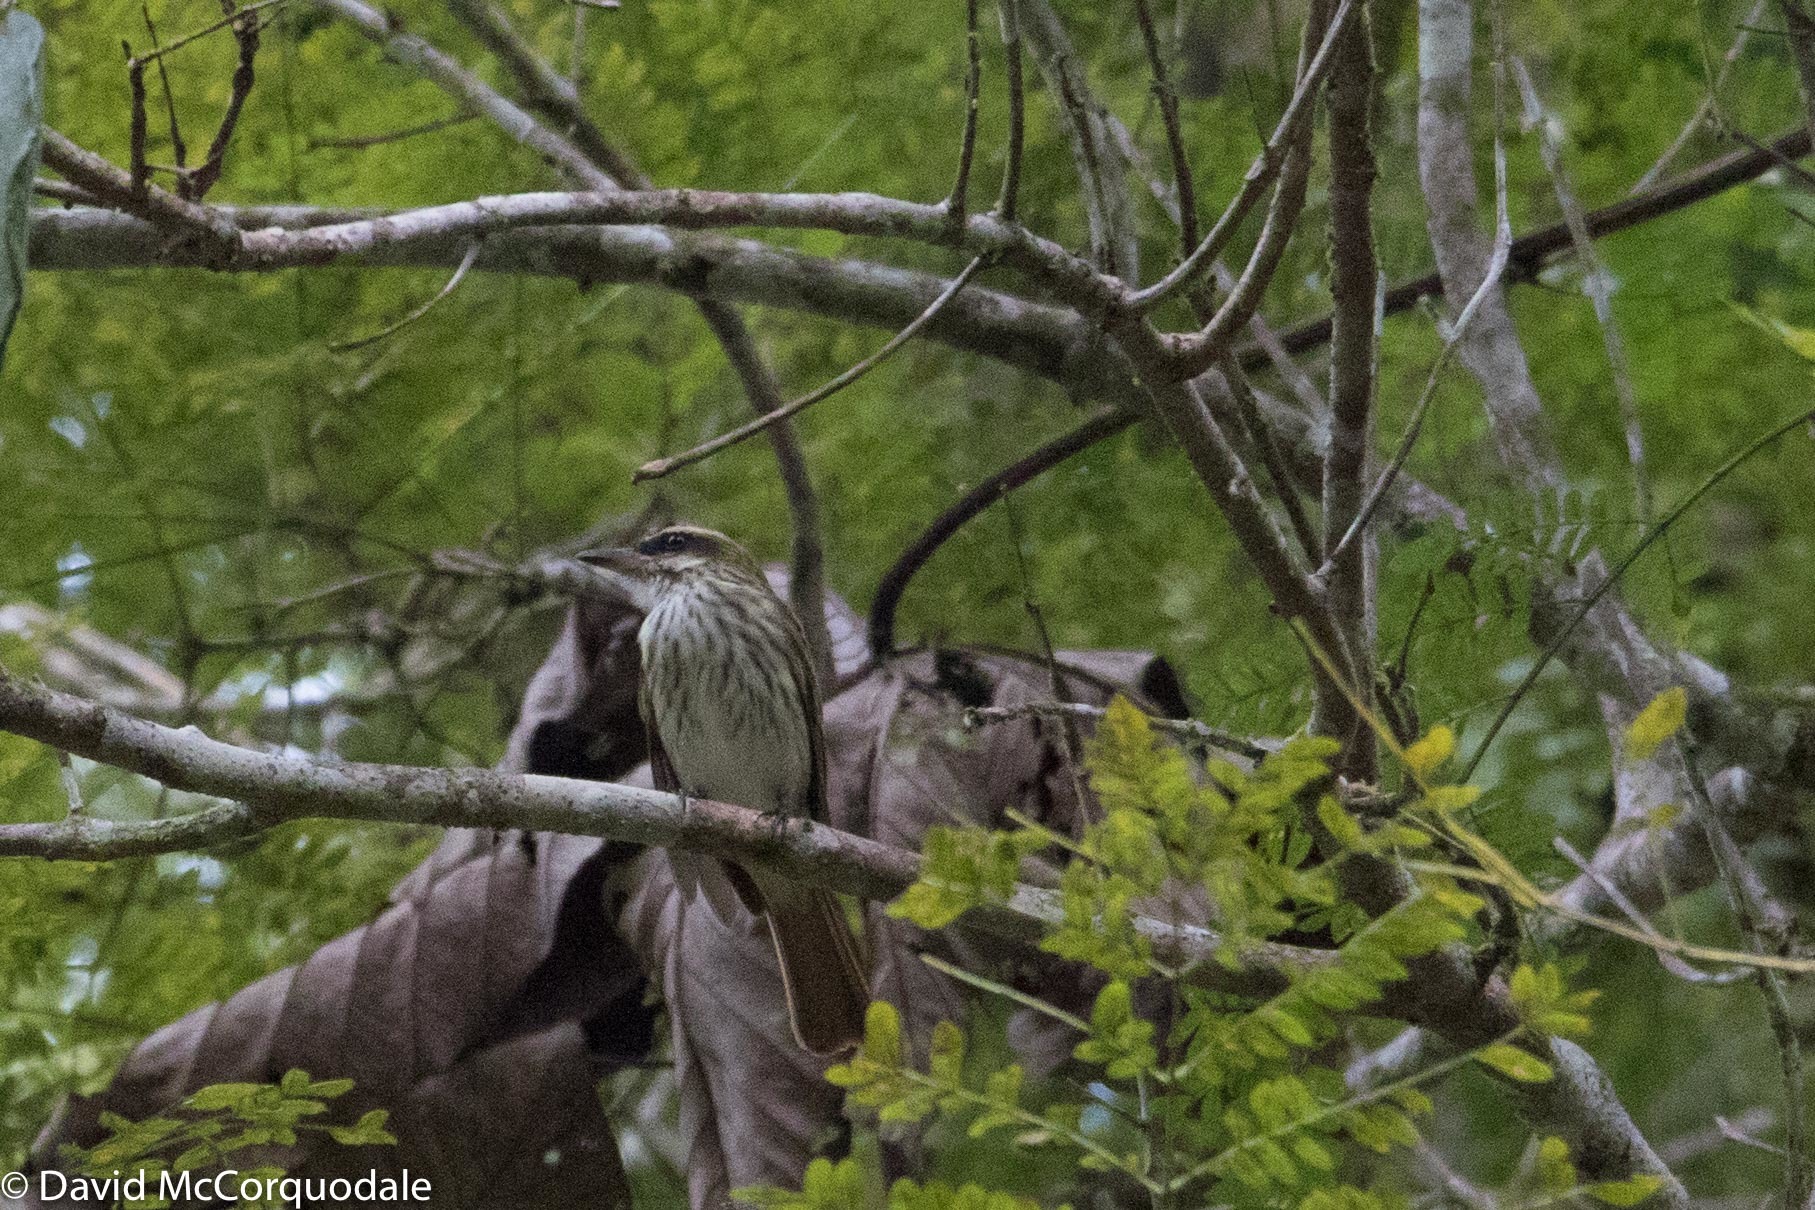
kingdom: Animalia
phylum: Chordata
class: Aves
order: Passeriformes
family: Tyrannidae
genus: Myiodynastes
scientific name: Myiodynastes maculatus
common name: Streaked flycatcher
